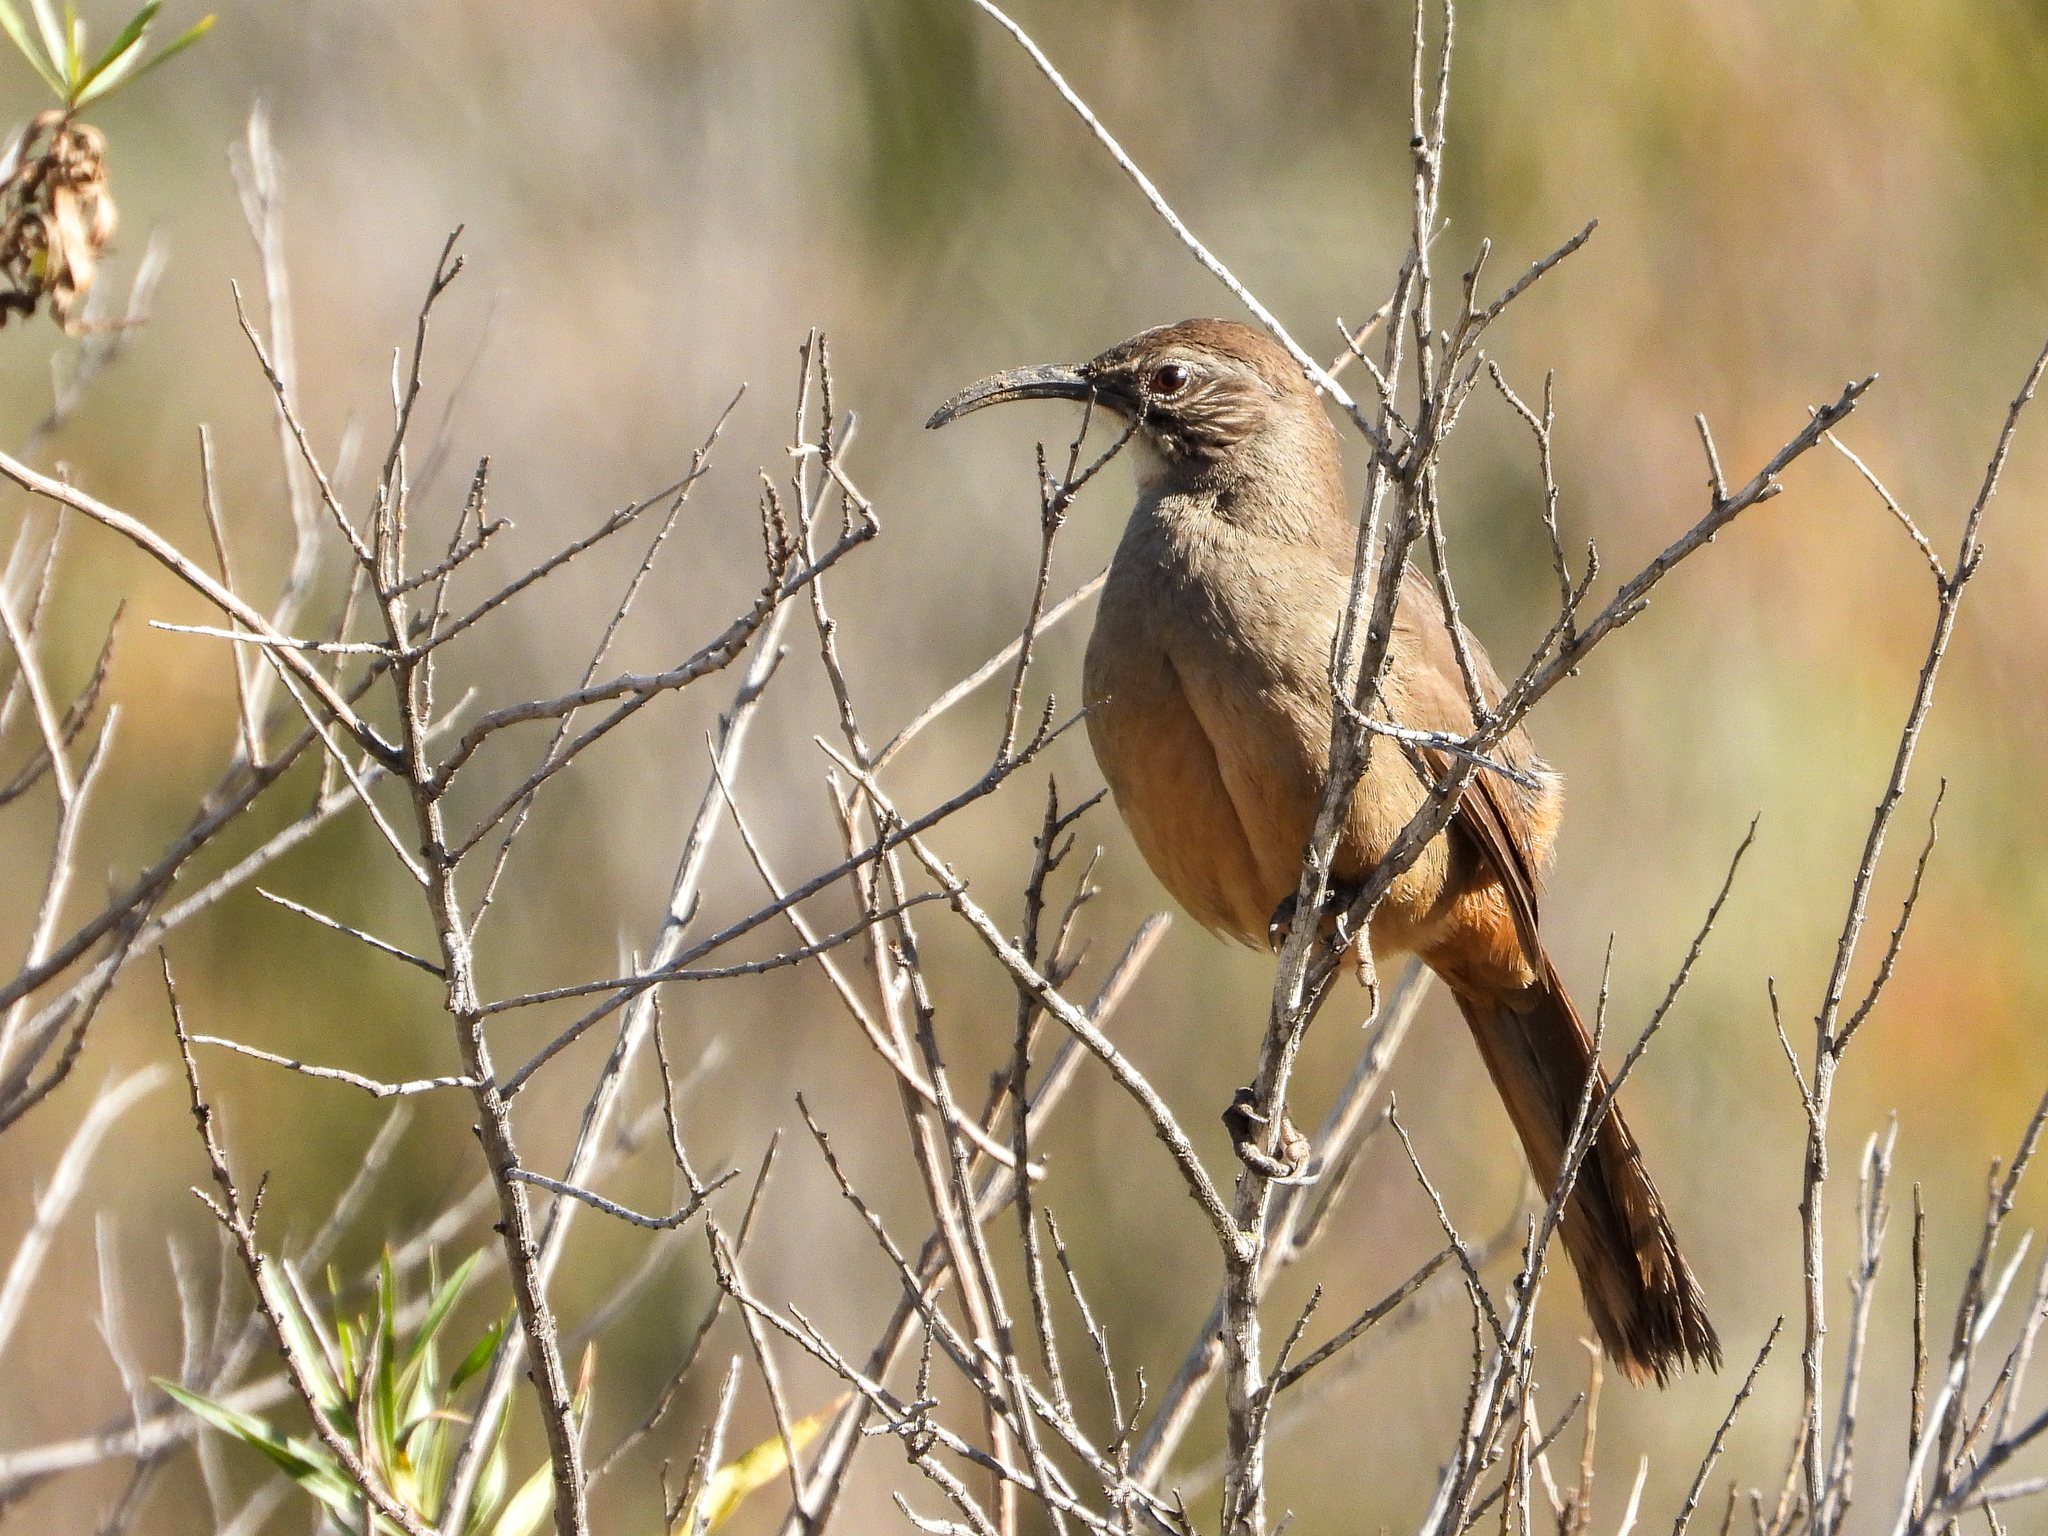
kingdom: Animalia
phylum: Chordata
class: Aves
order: Passeriformes
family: Mimidae
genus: Toxostoma
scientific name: Toxostoma redivivum
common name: California thrasher
